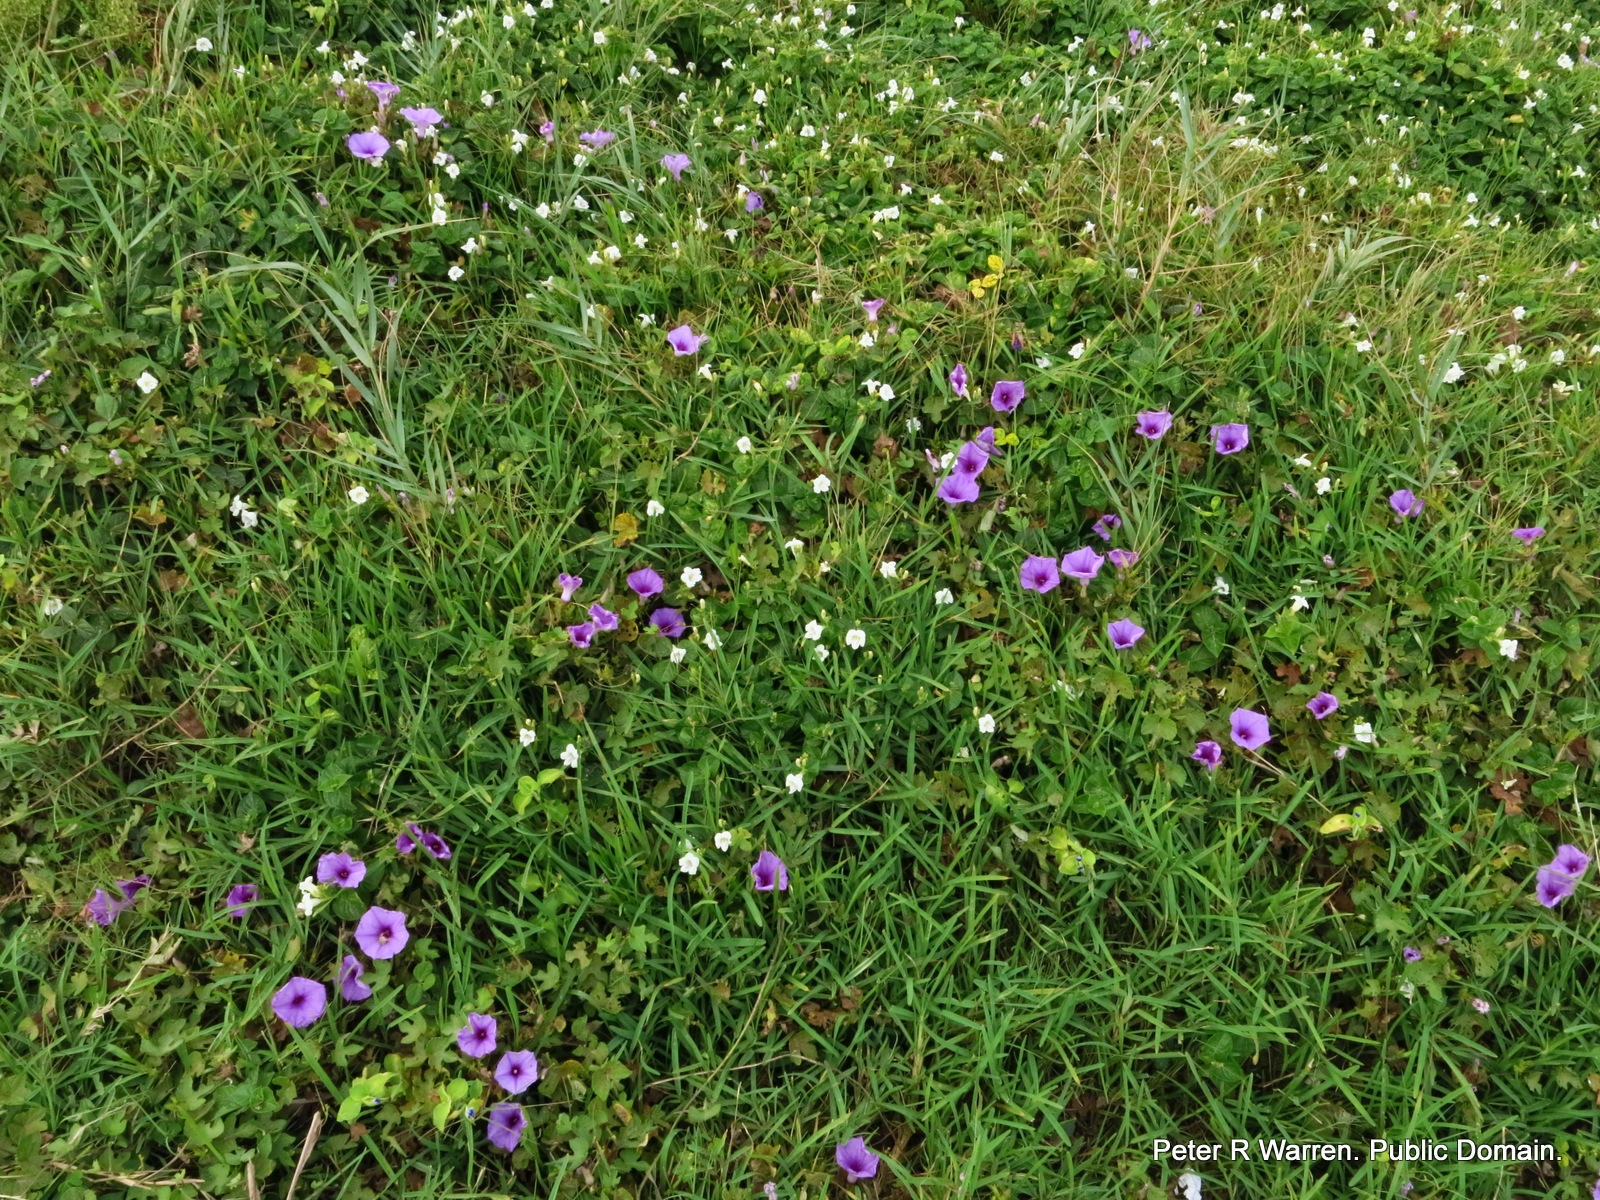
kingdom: Plantae
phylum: Tracheophyta
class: Magnoliopsida
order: Lamiales
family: Acanthaceae
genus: Asystasia
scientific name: Asystasia intrusa
